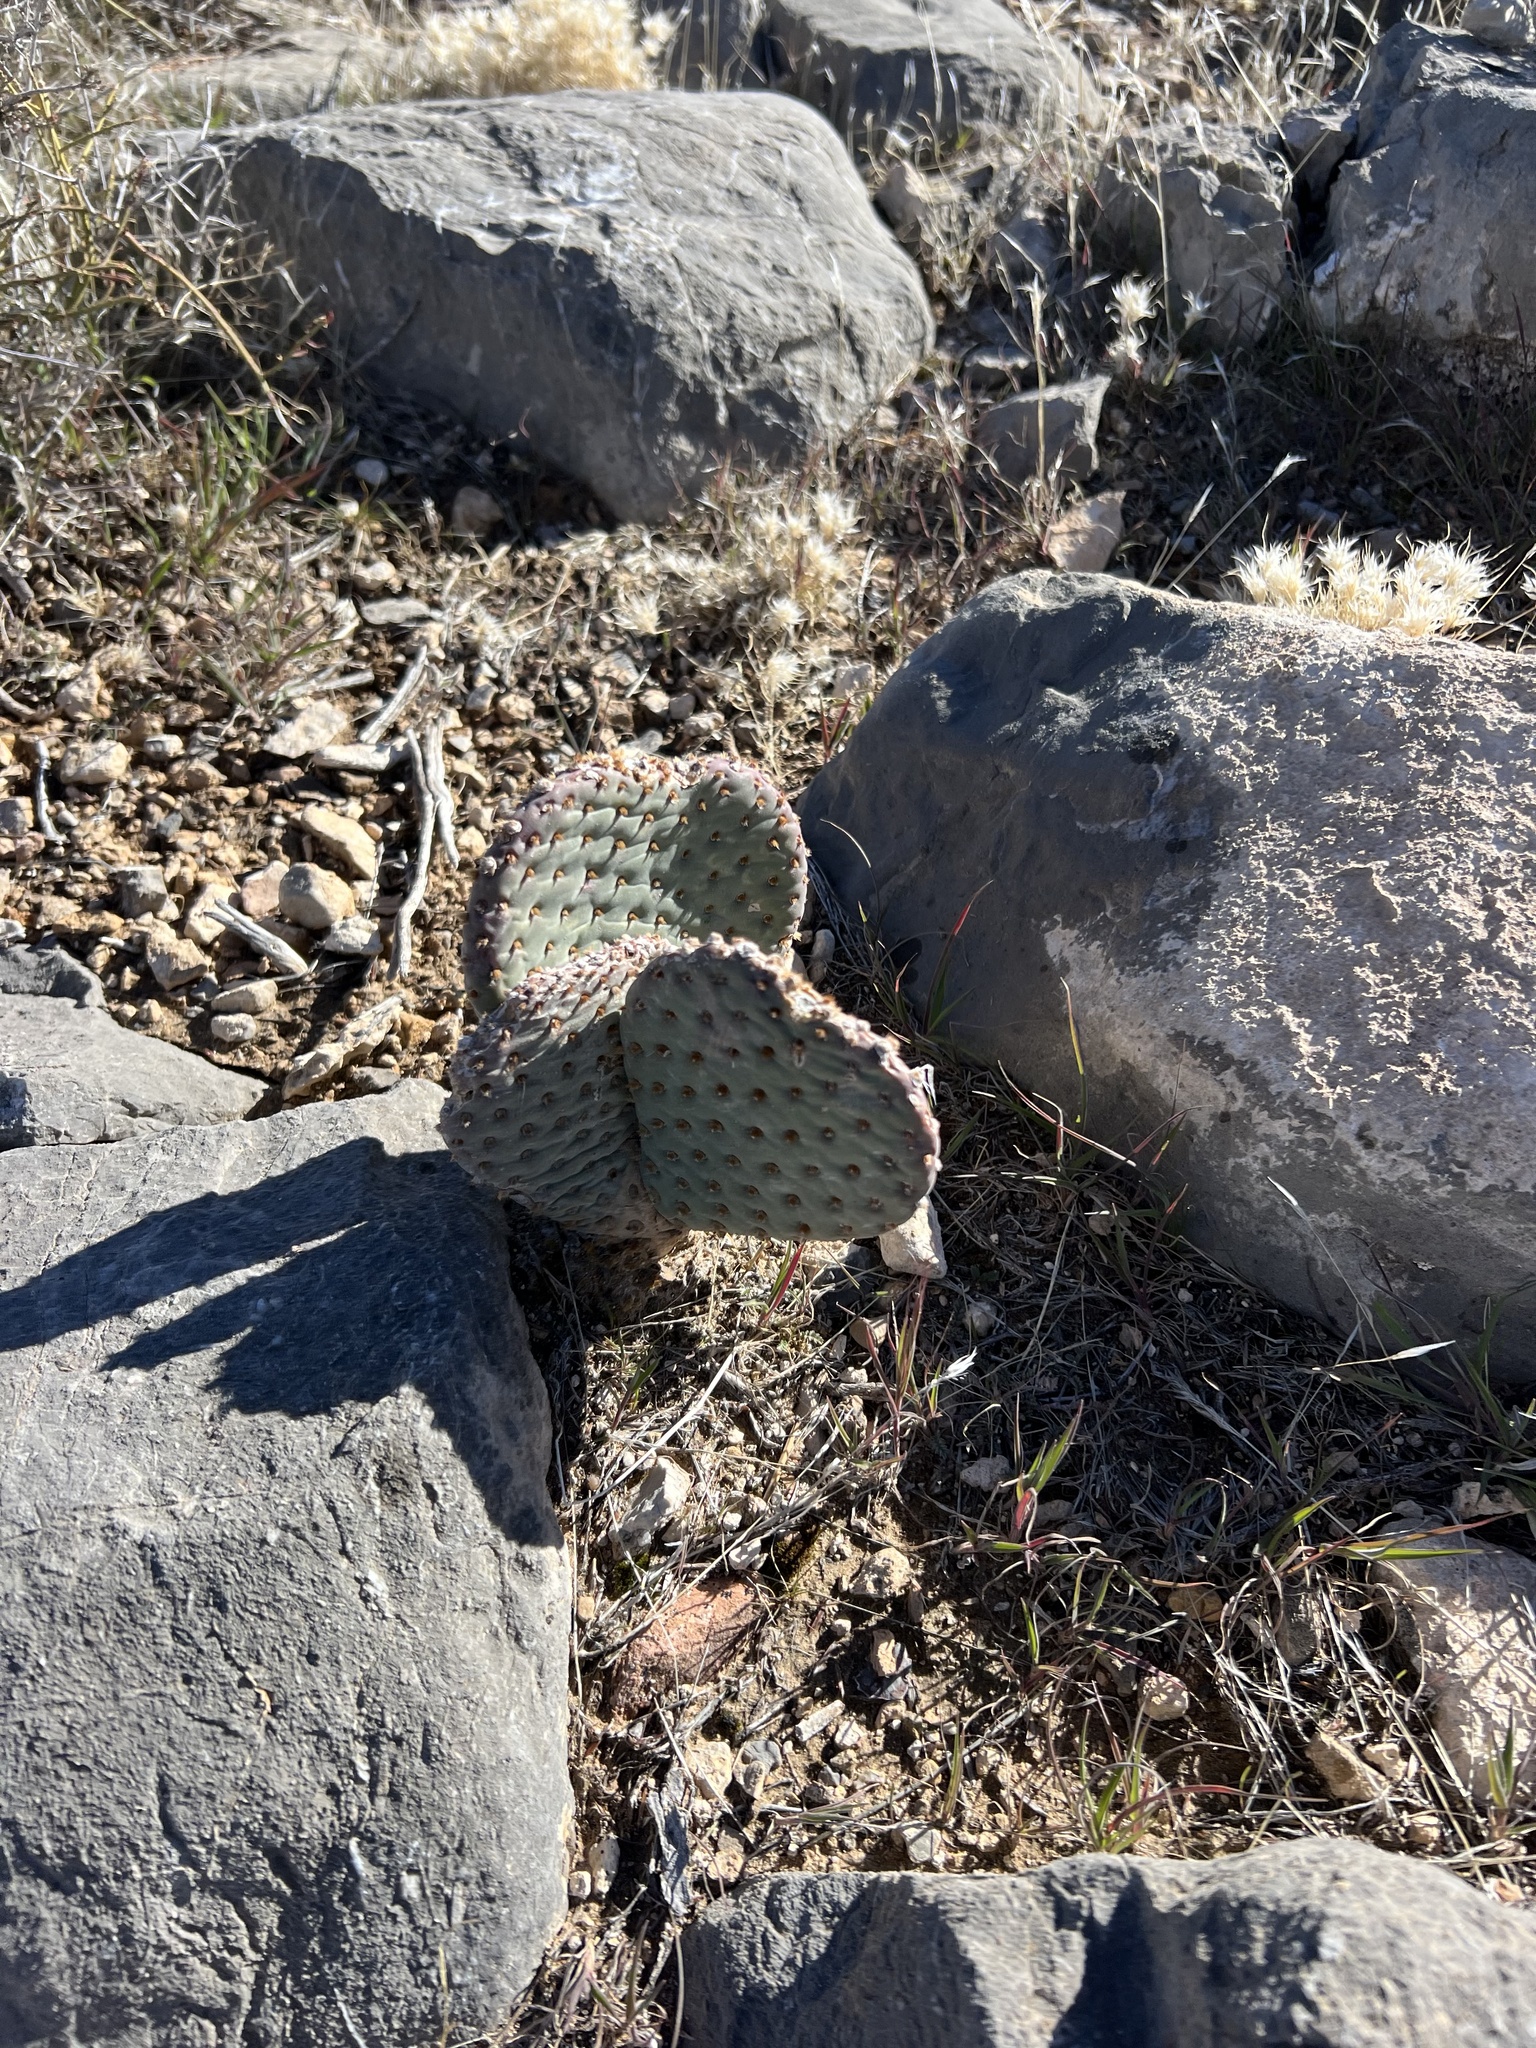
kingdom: Plantae
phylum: Tracheophyta
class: Magnoliopsida
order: Caryophyllales
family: Cactaceae
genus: Opuntia
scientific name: Opuntia basilaris
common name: Beavertail prickly-pear
